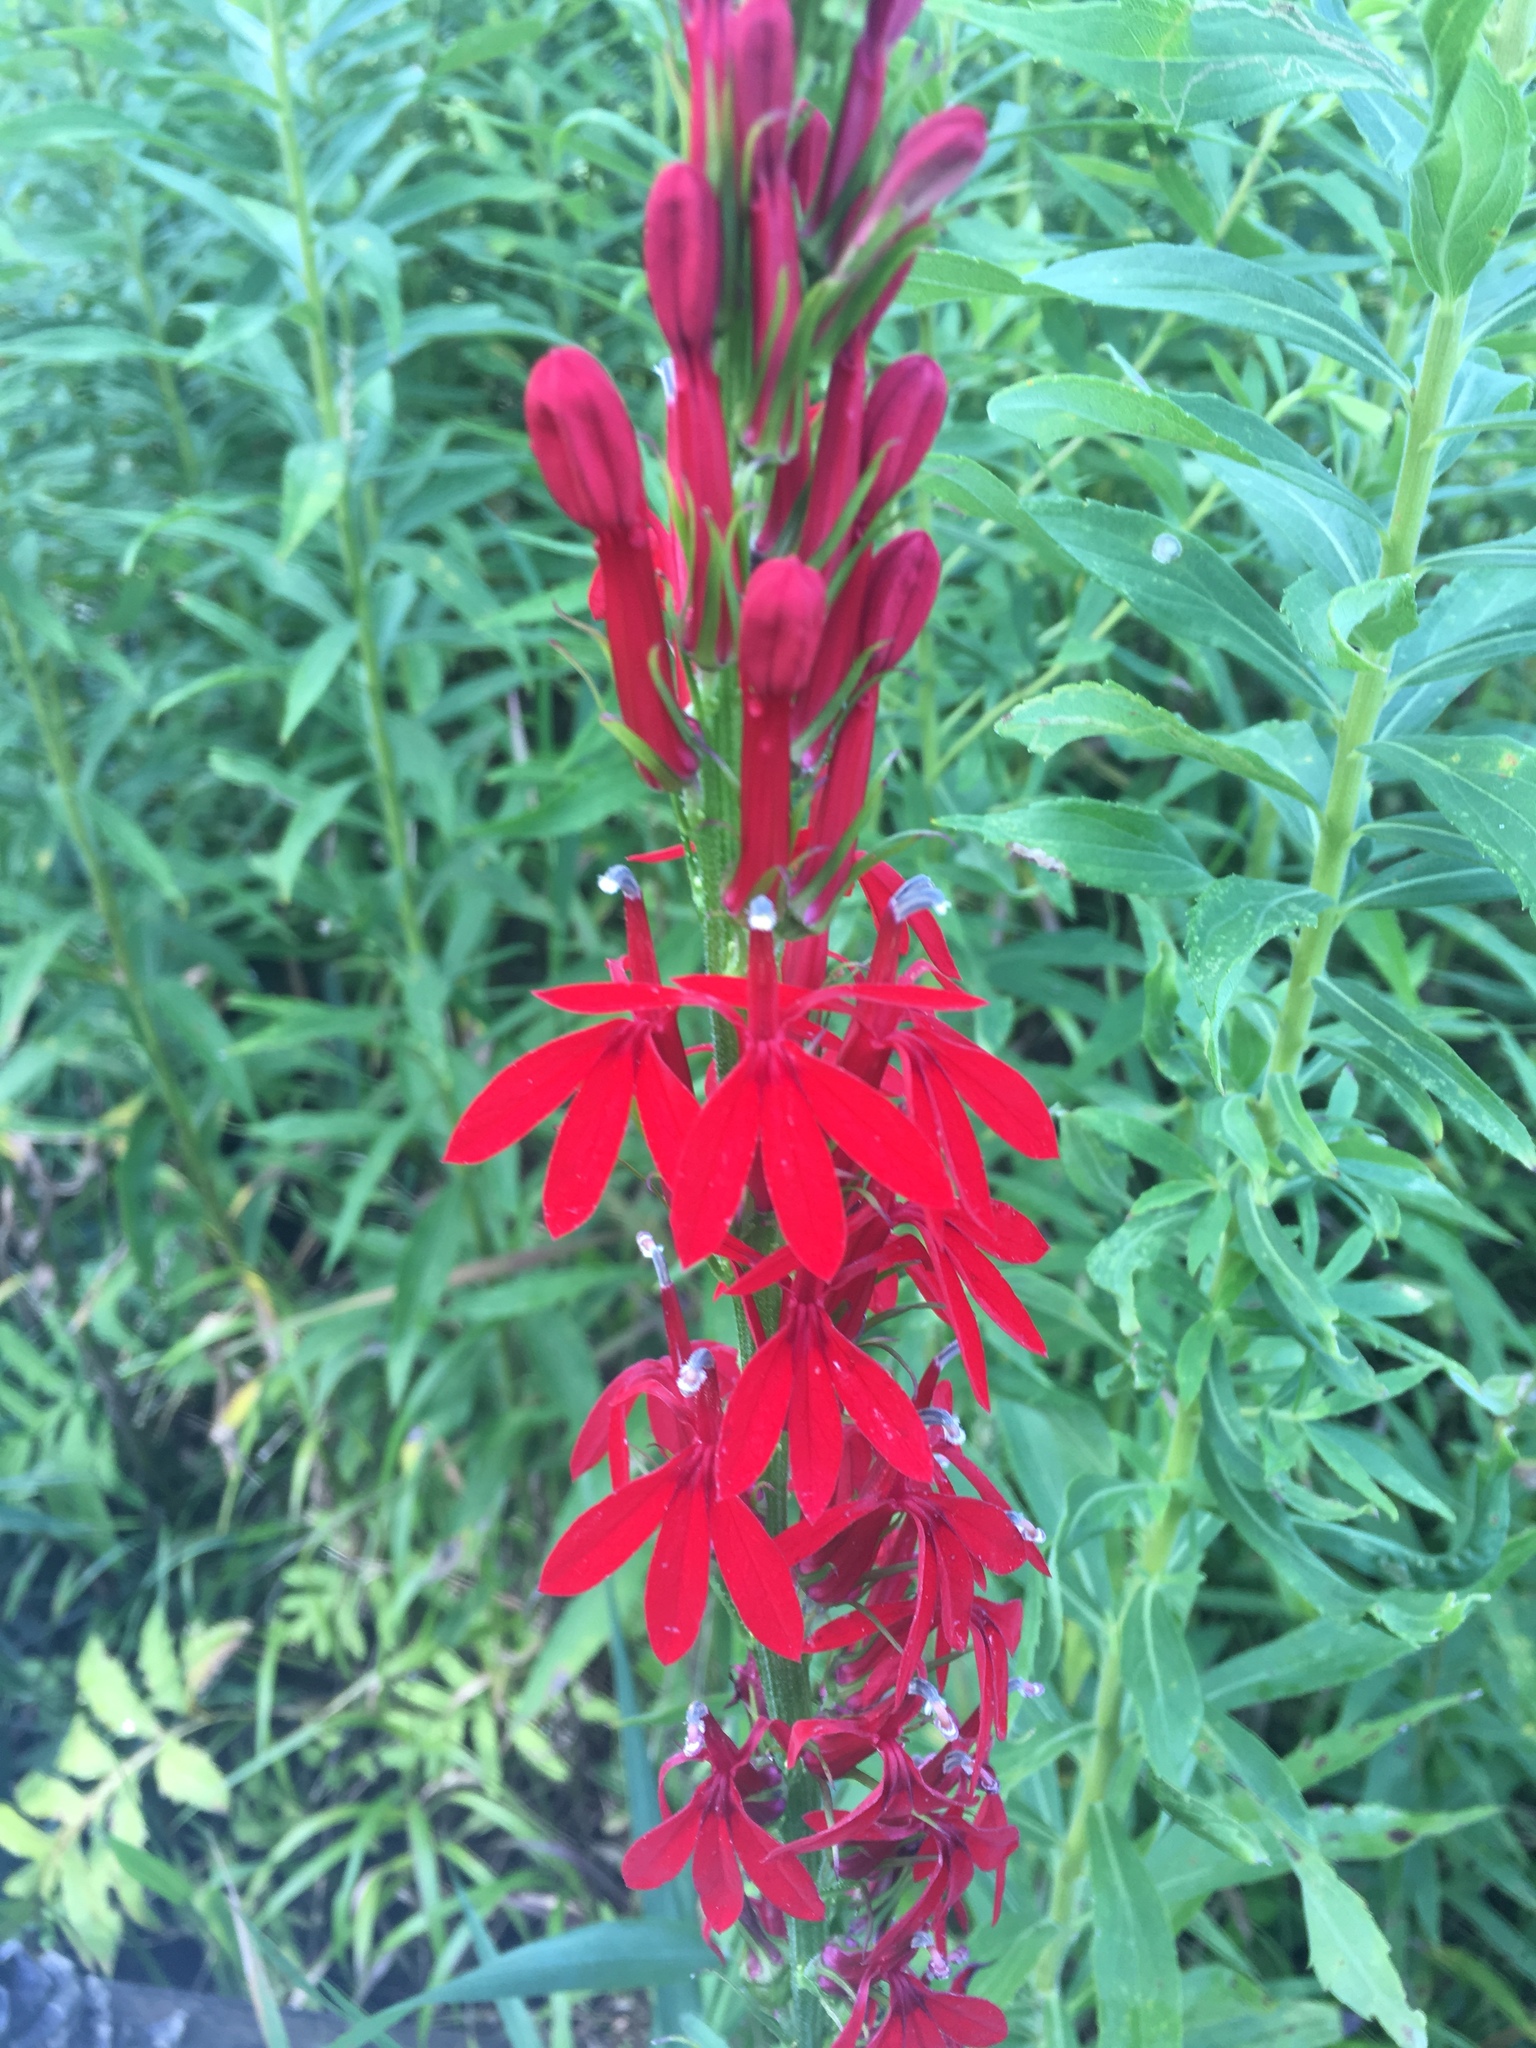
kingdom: Plantae
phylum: Tracheophyta
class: Magnoliopsida
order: Asterales
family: Campanulaceae
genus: Lobelia
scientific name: Lobelia cardinalis
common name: Cardinal flower
